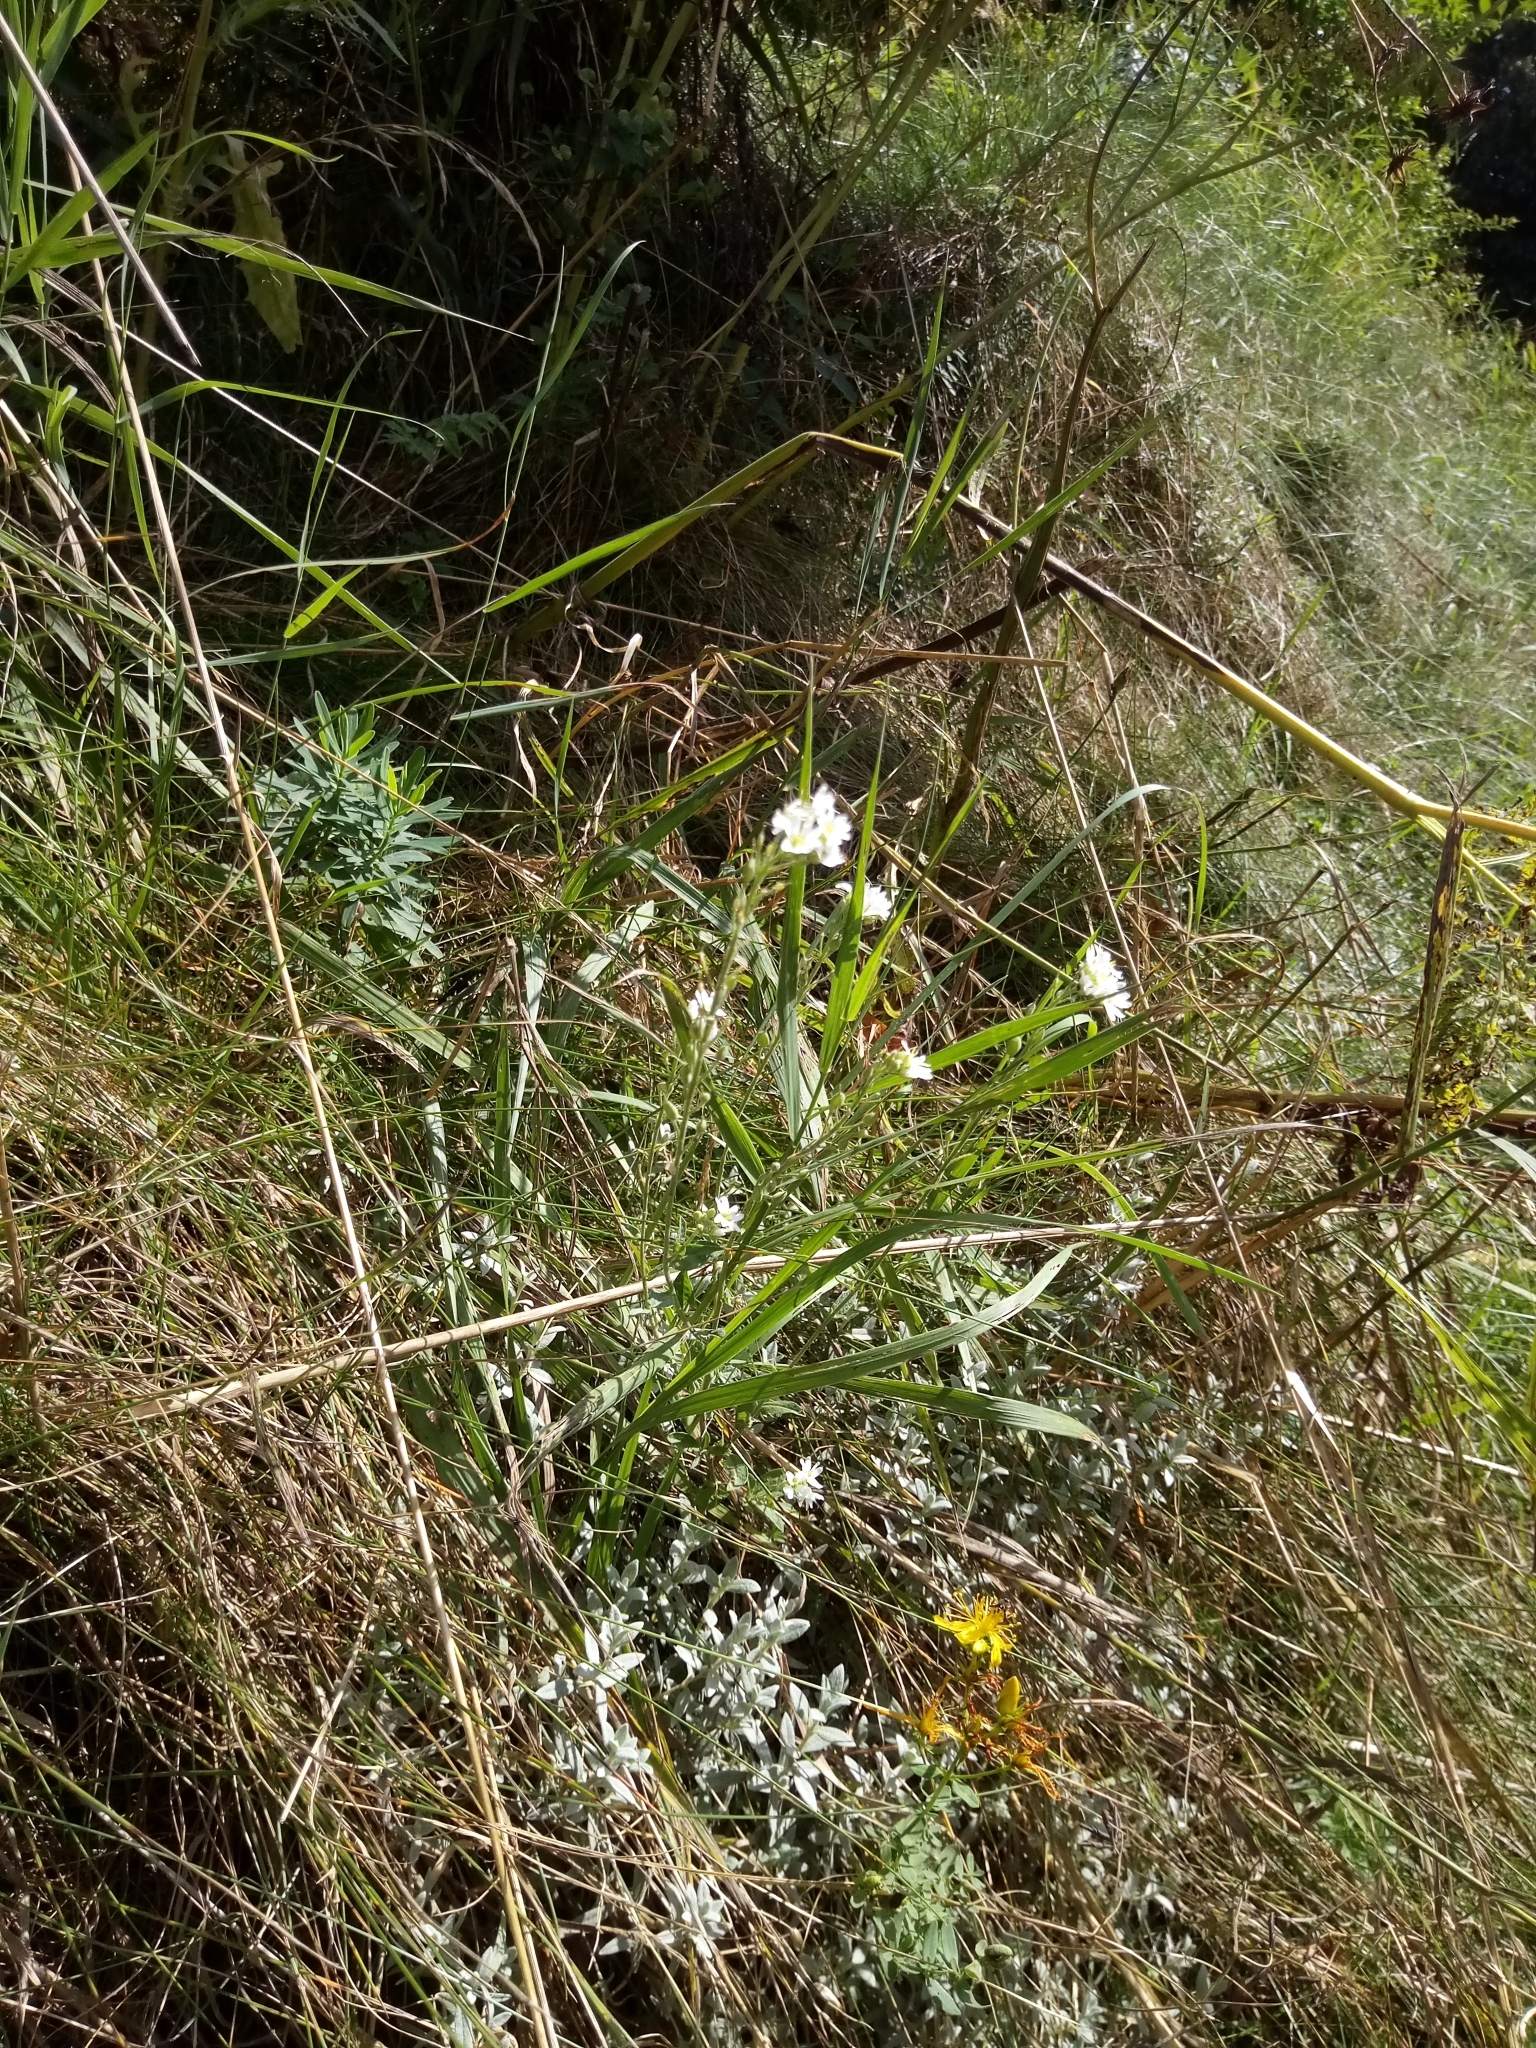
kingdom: Plantae
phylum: Tracheophyta
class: Magnoliopsida
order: Brassicales
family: Brassicaceae
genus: Berteroa
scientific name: Berteroa incana
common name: Hoary alison
